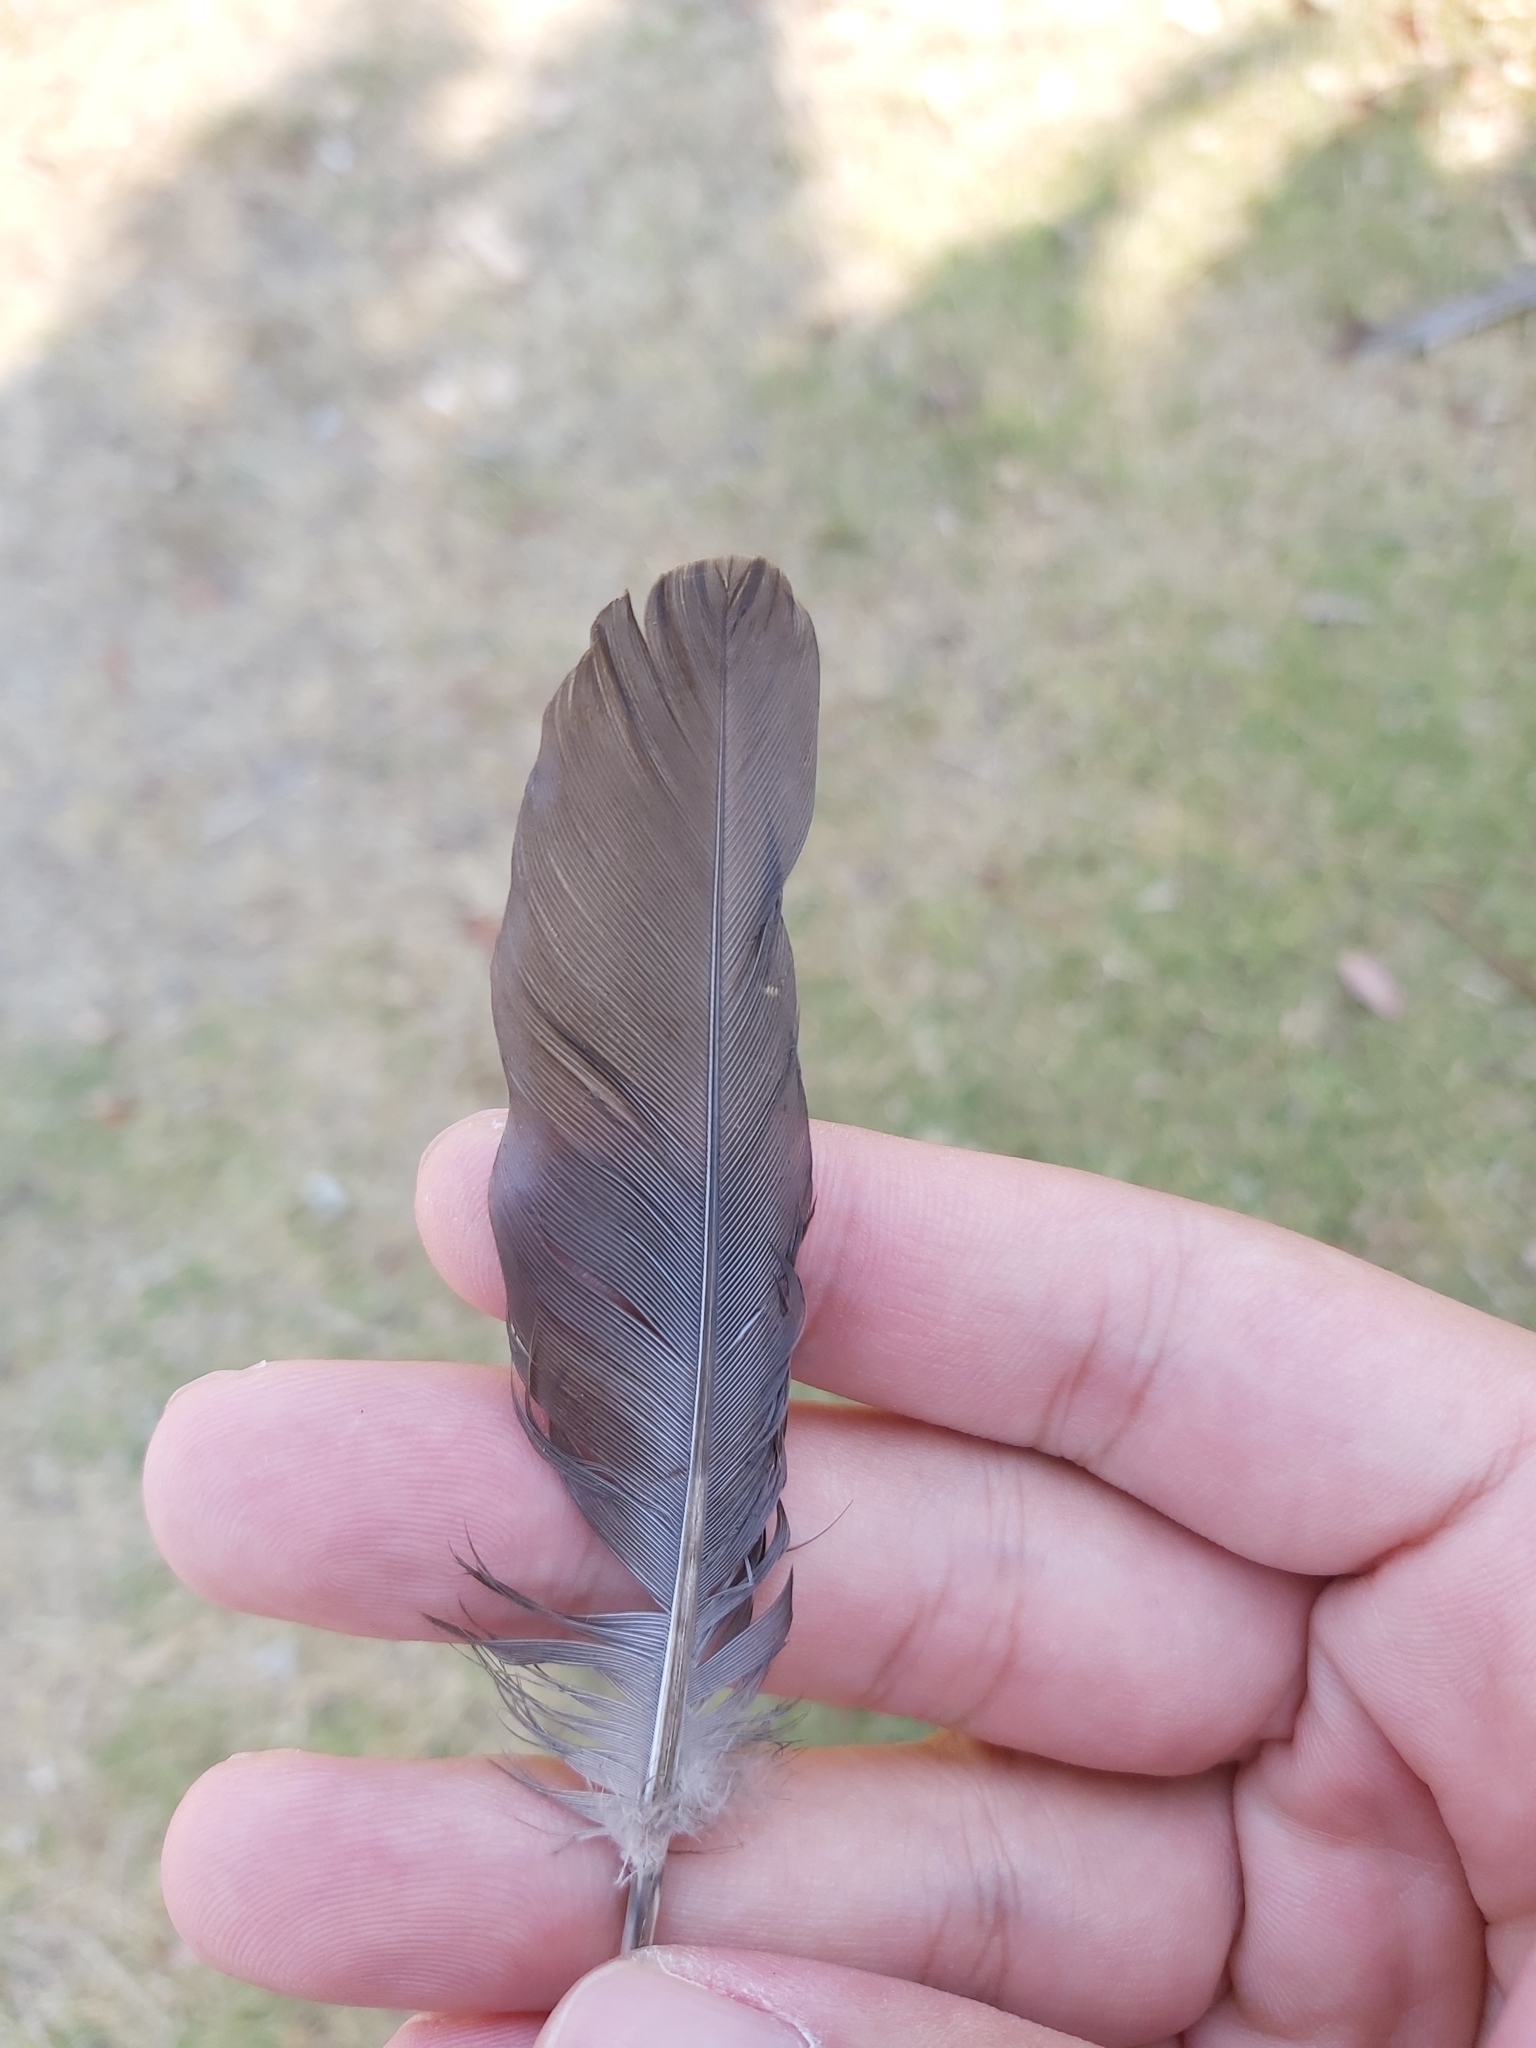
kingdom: Animalia
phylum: Chordata
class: Aves
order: Columbiformes
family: Columbidae
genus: Spilopelia
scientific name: Spilopelia chinensis
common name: Spotted dove
